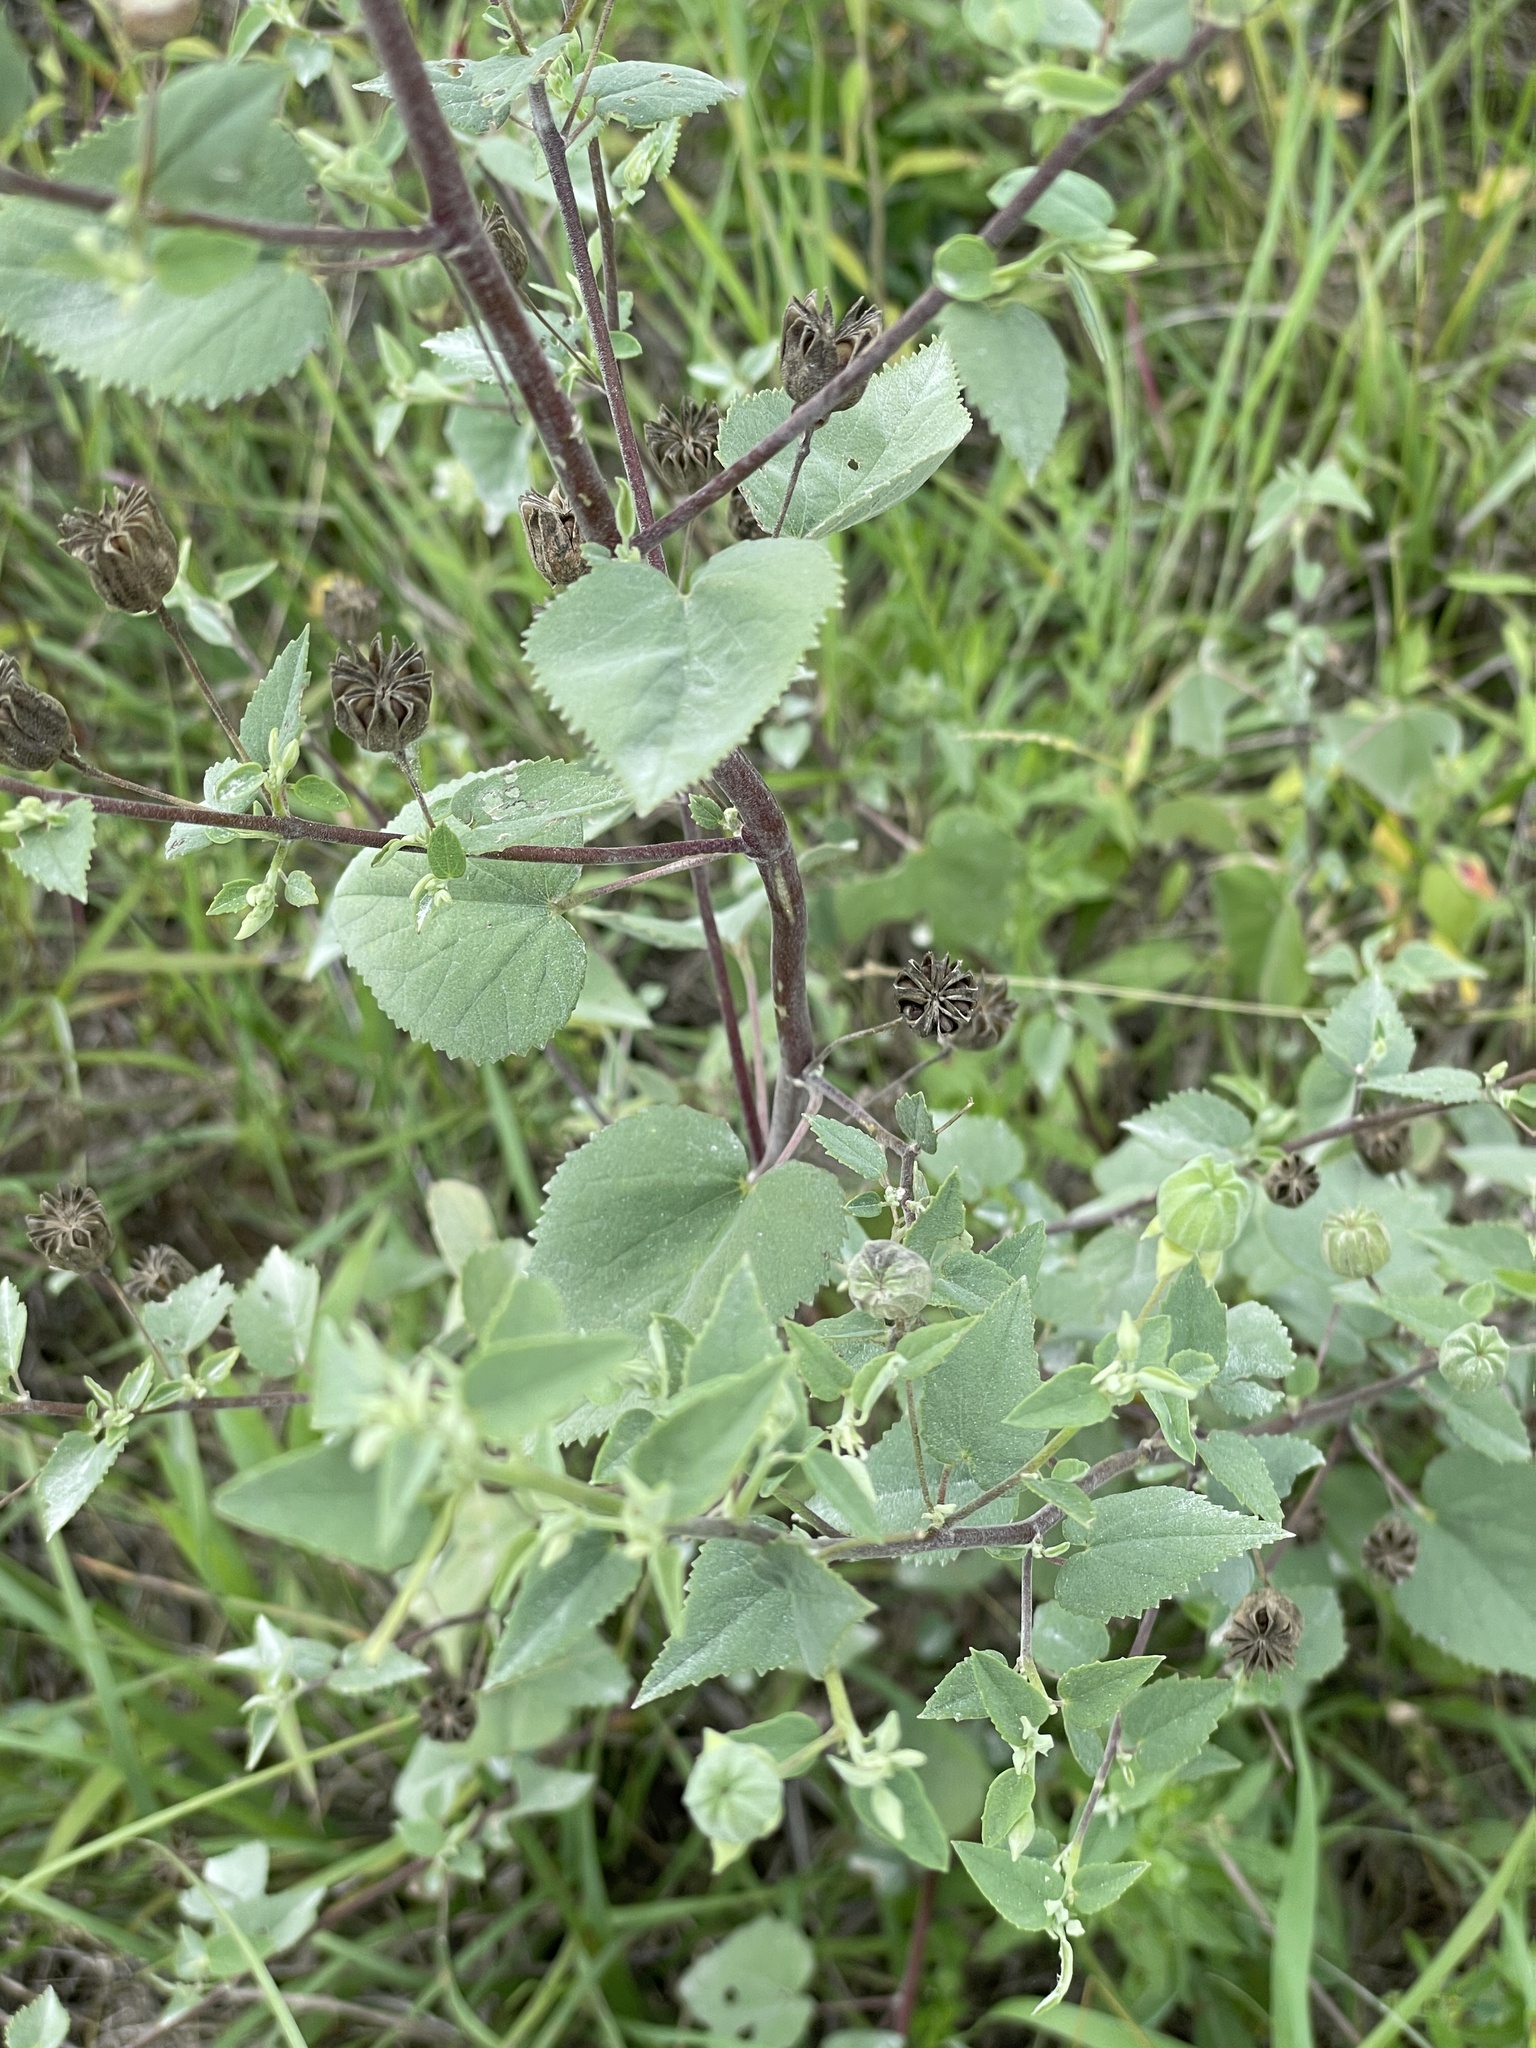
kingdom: Plantae
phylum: Tracheophyta
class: Magnoliopsida
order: Malvales
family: Malvaceae
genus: Abutilon
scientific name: Abutilon fruticosum
